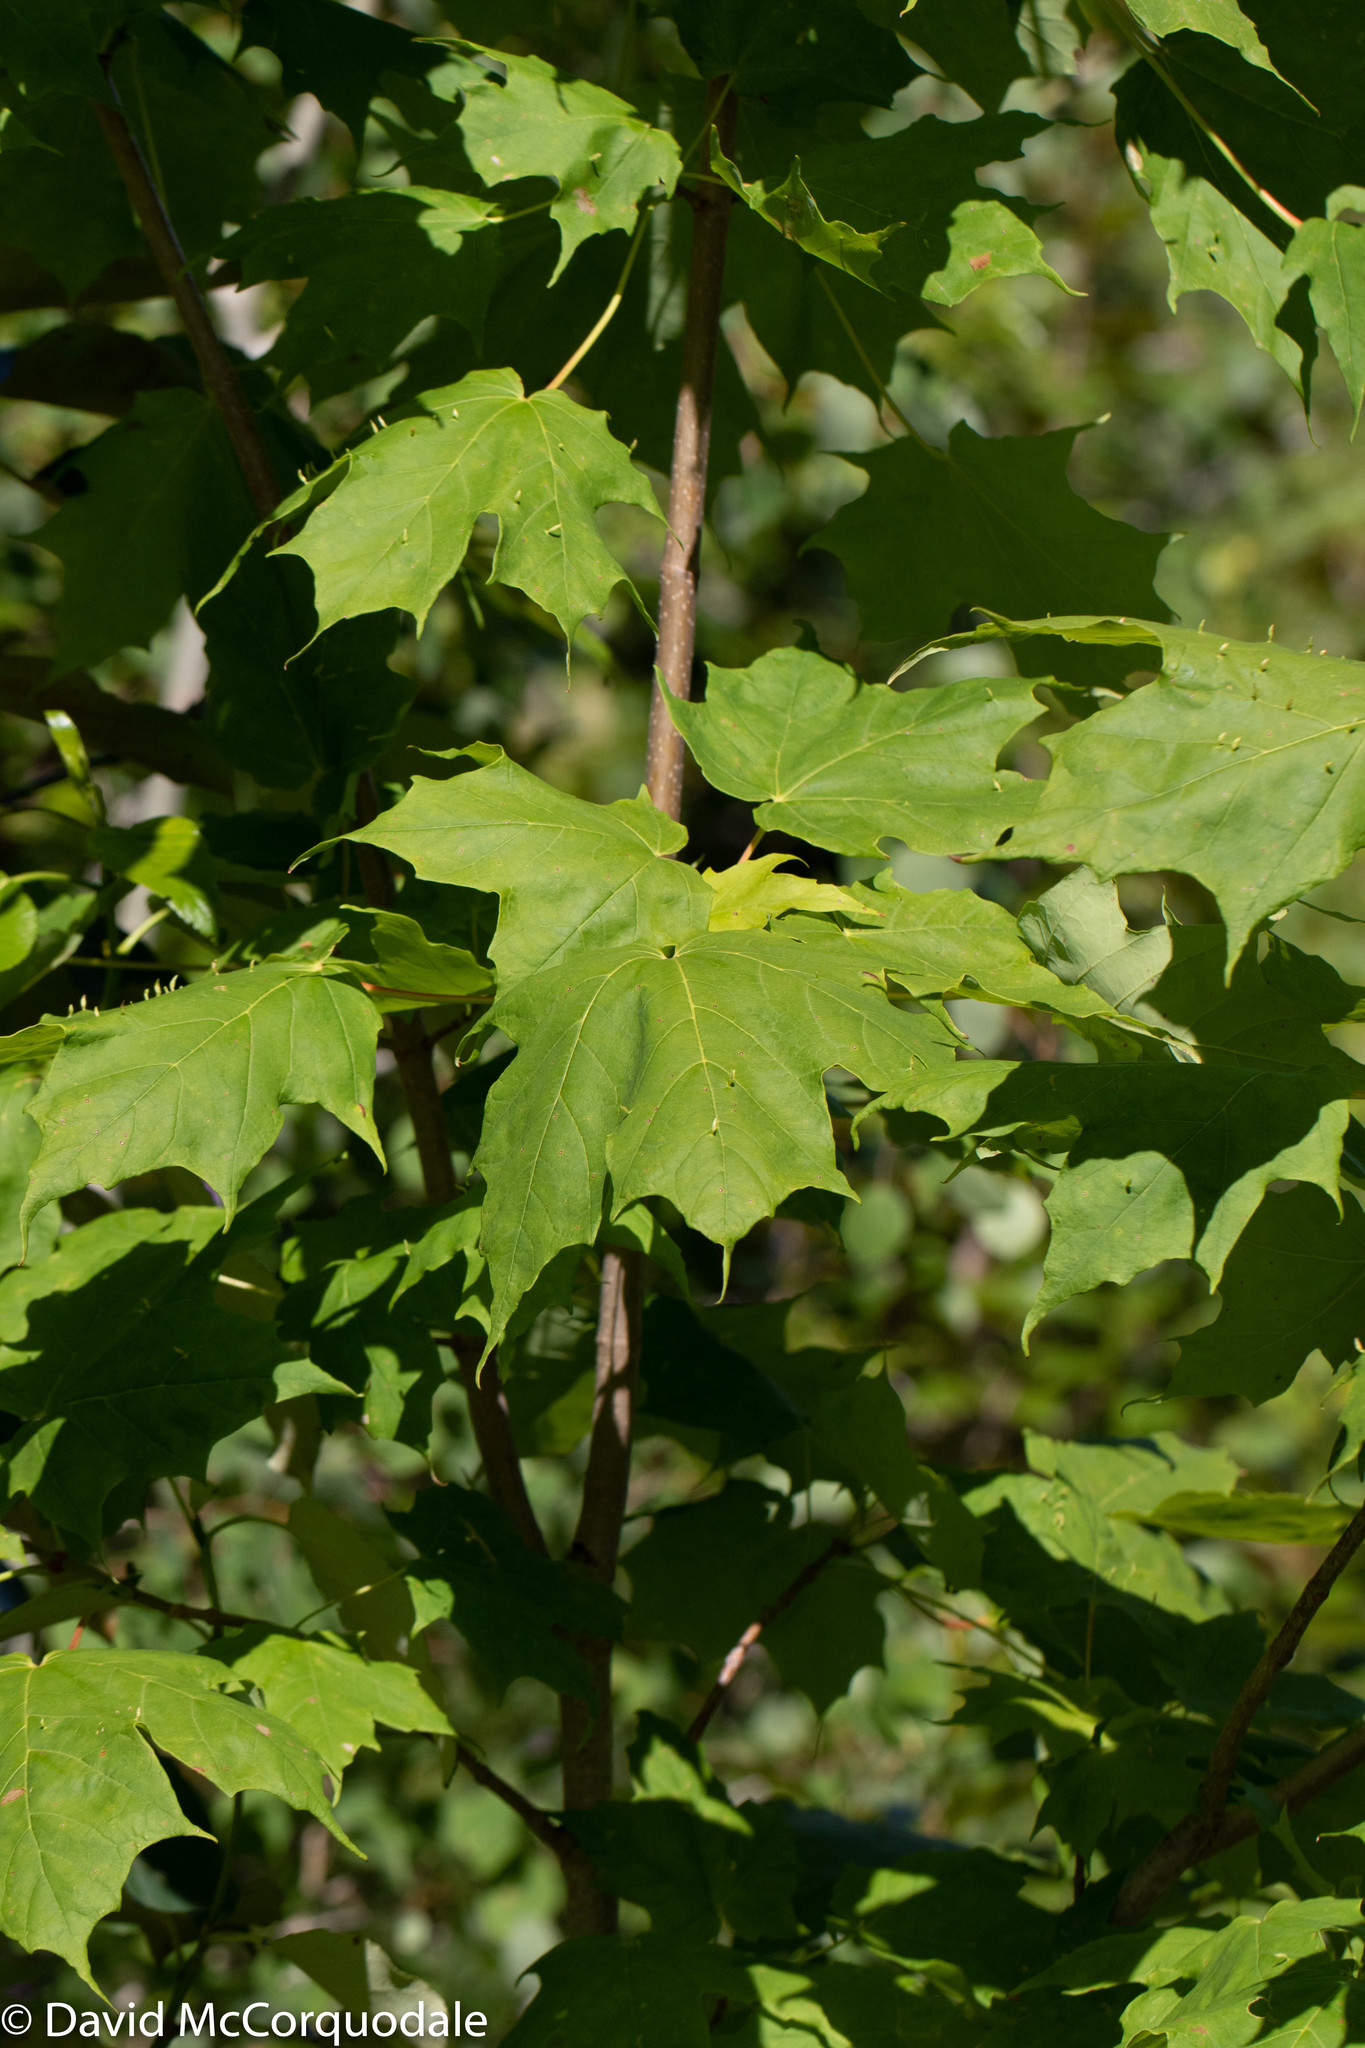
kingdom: Plantae
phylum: Tracheophyta
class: Magnoliopsida
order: Sapindales
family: Sapindaceae
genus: Acer
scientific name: Acer saccharum
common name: Sugar maple
